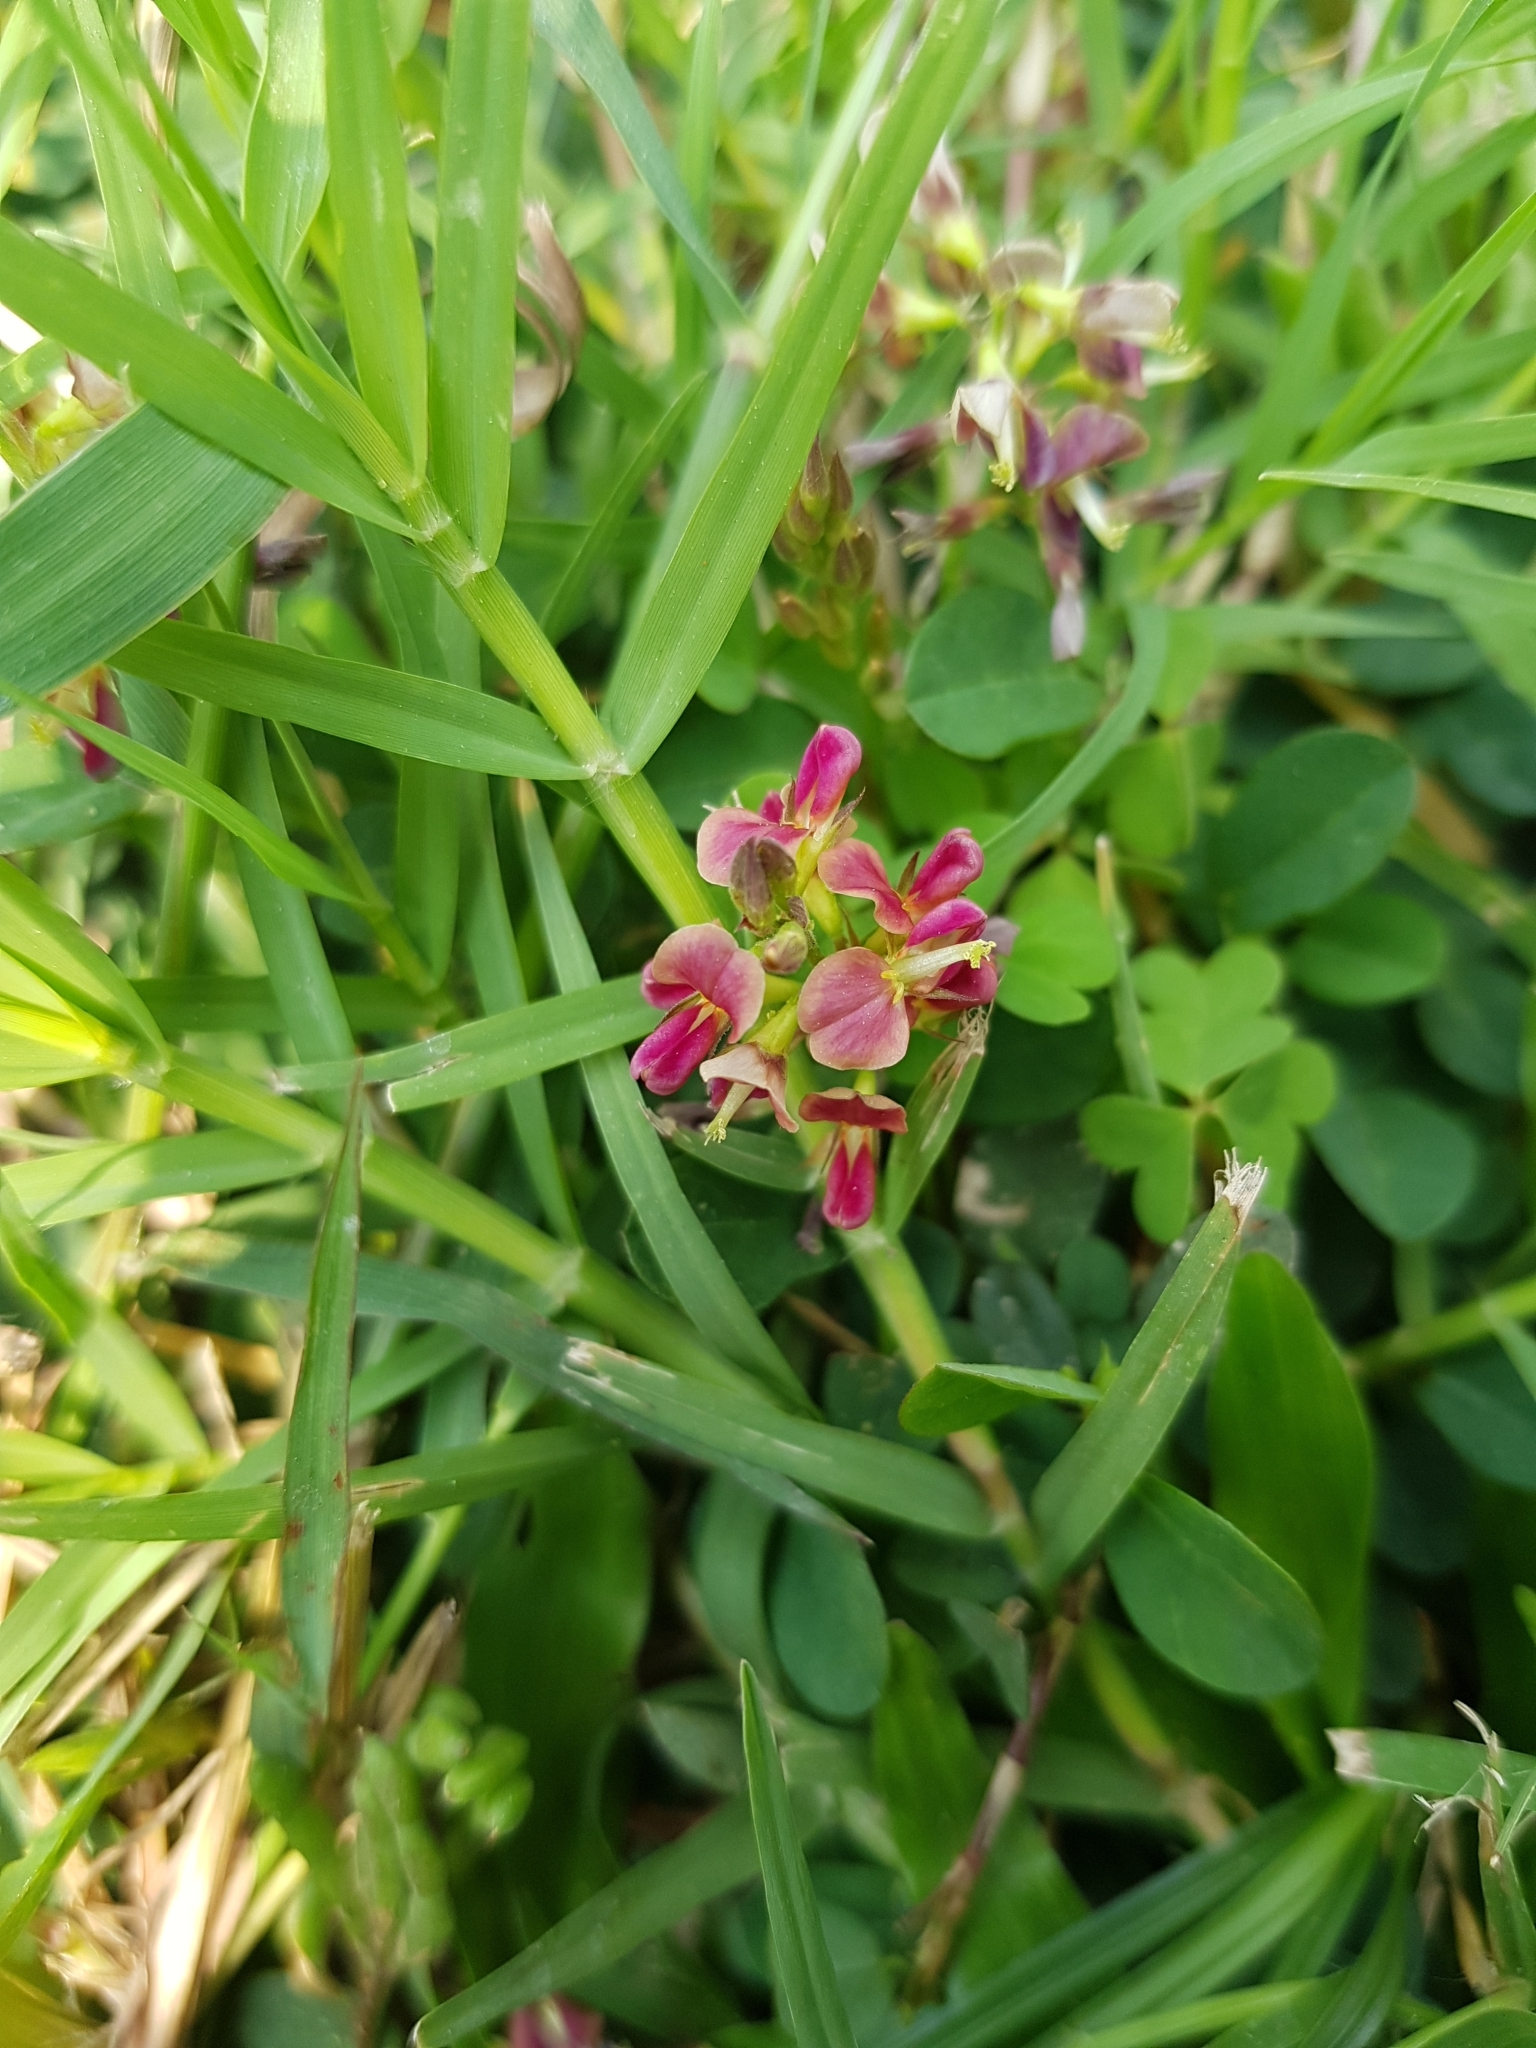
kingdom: Plantae
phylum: Tracheophyta
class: Magnoliopsida
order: Fabales
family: Fabaceae
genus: Alysicarpus
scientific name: Alysicarpus ovalifolius
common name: Alyce clover
